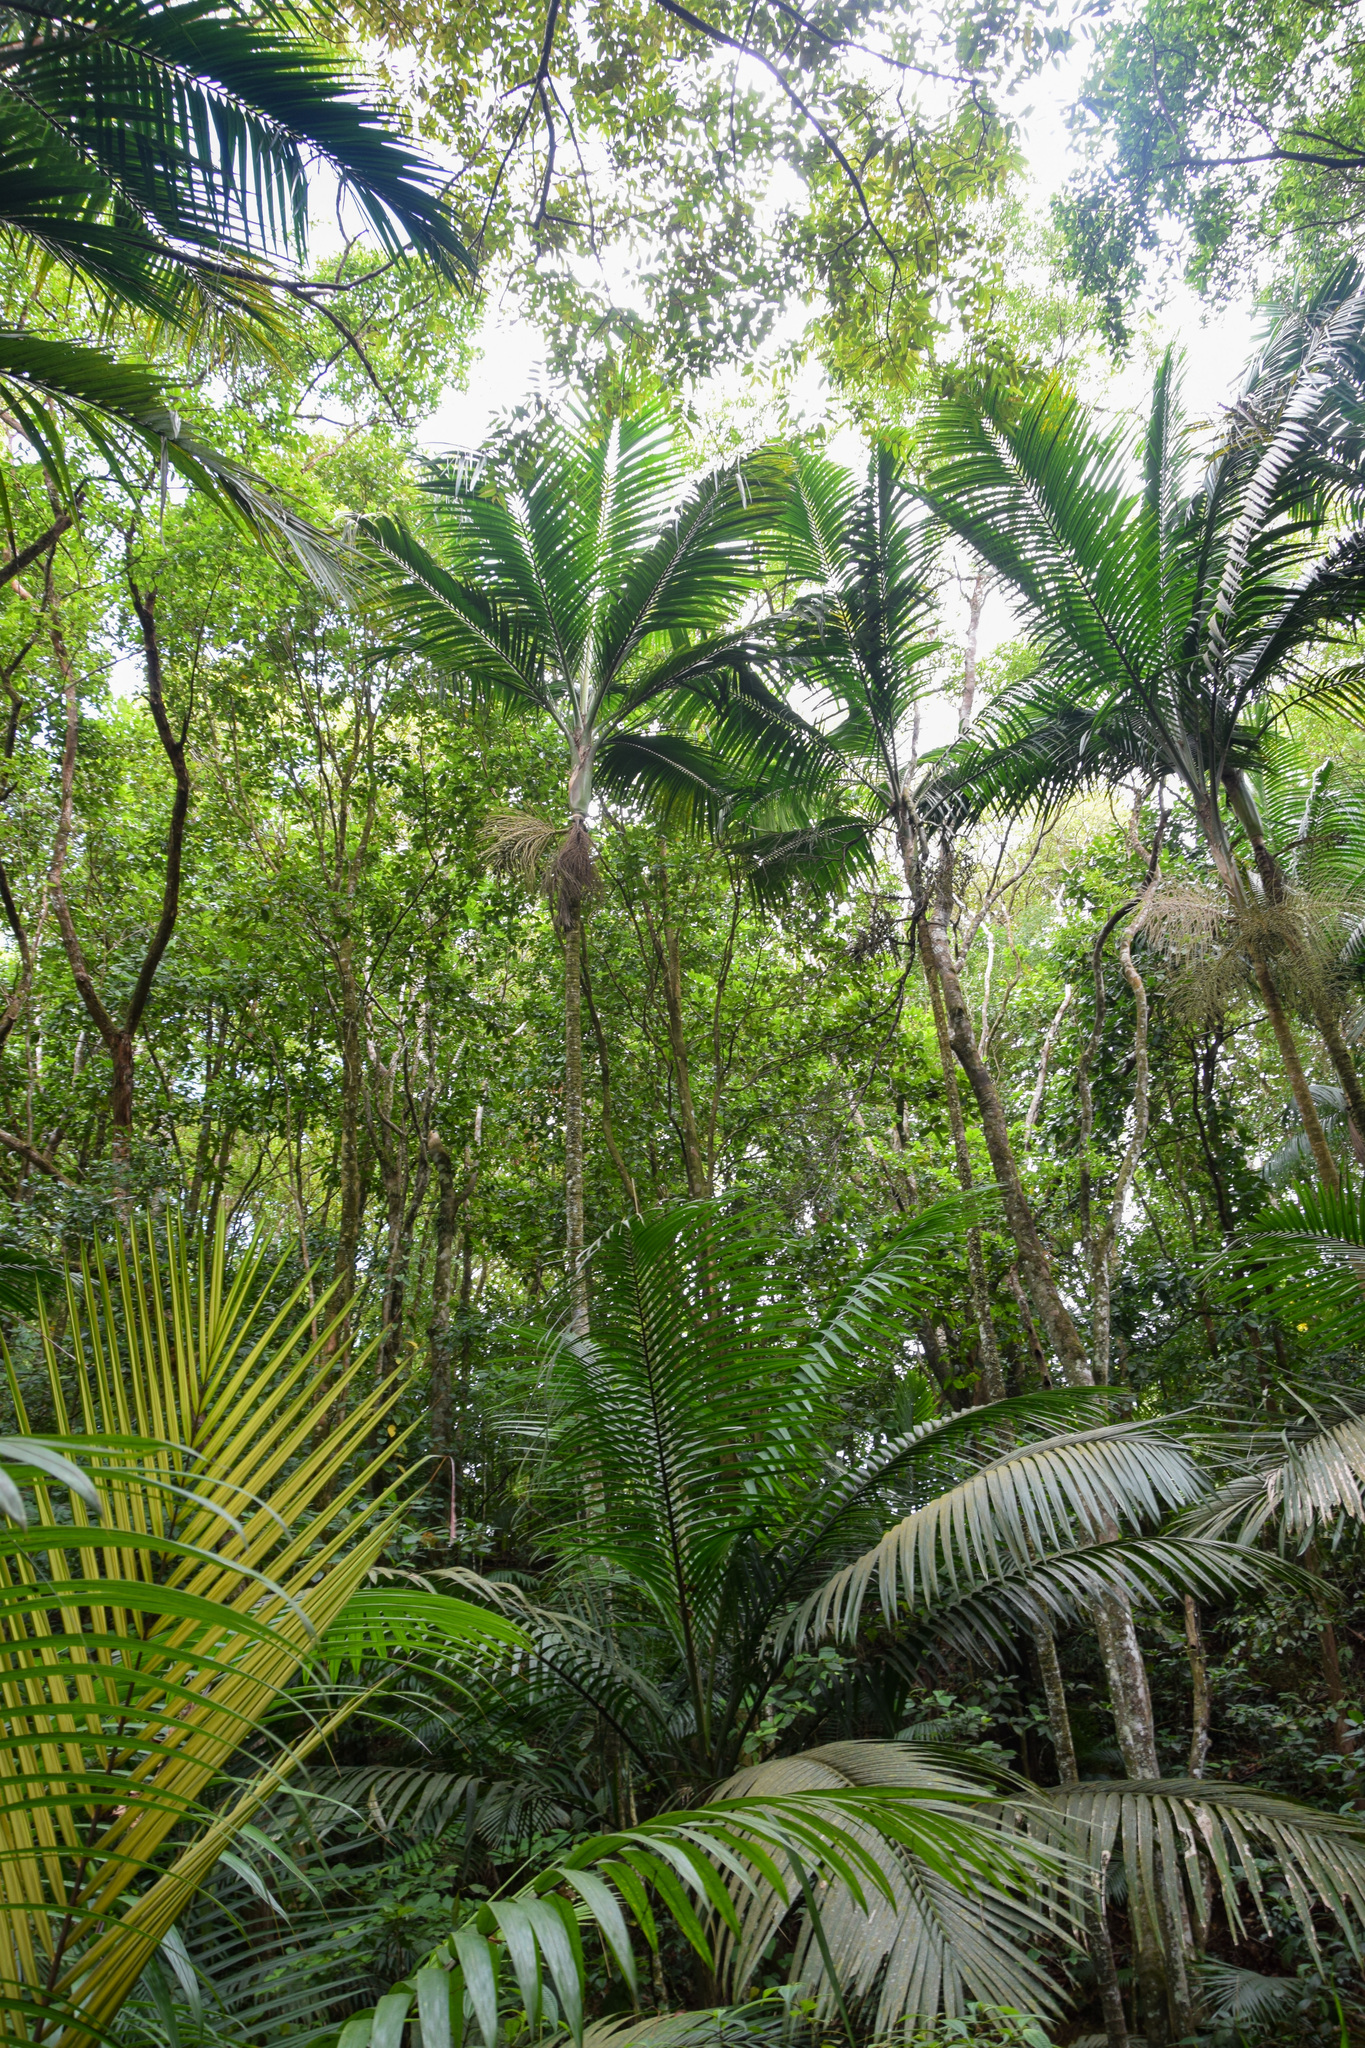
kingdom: Plantae
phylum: Tracheophyta
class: Liliopsida
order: Arecales
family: Arecaceae
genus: Prestoea
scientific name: Prestoea acuminata
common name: Sierran palm
